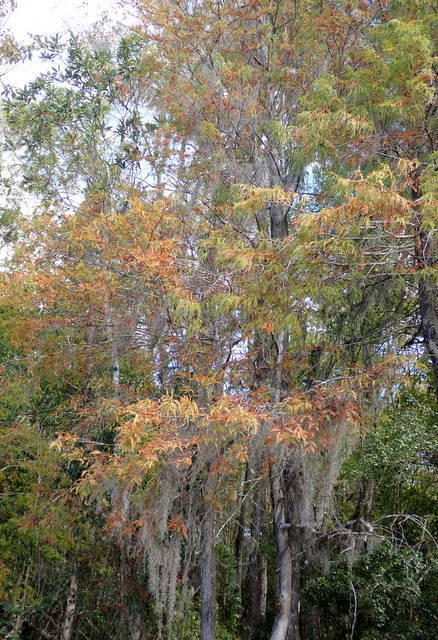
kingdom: Plantae
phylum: Tracheophyta
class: Pinopsida
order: Pinales
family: Cupressaceae
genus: Taxodium
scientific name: Taxodium distichum
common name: Bald cypress
